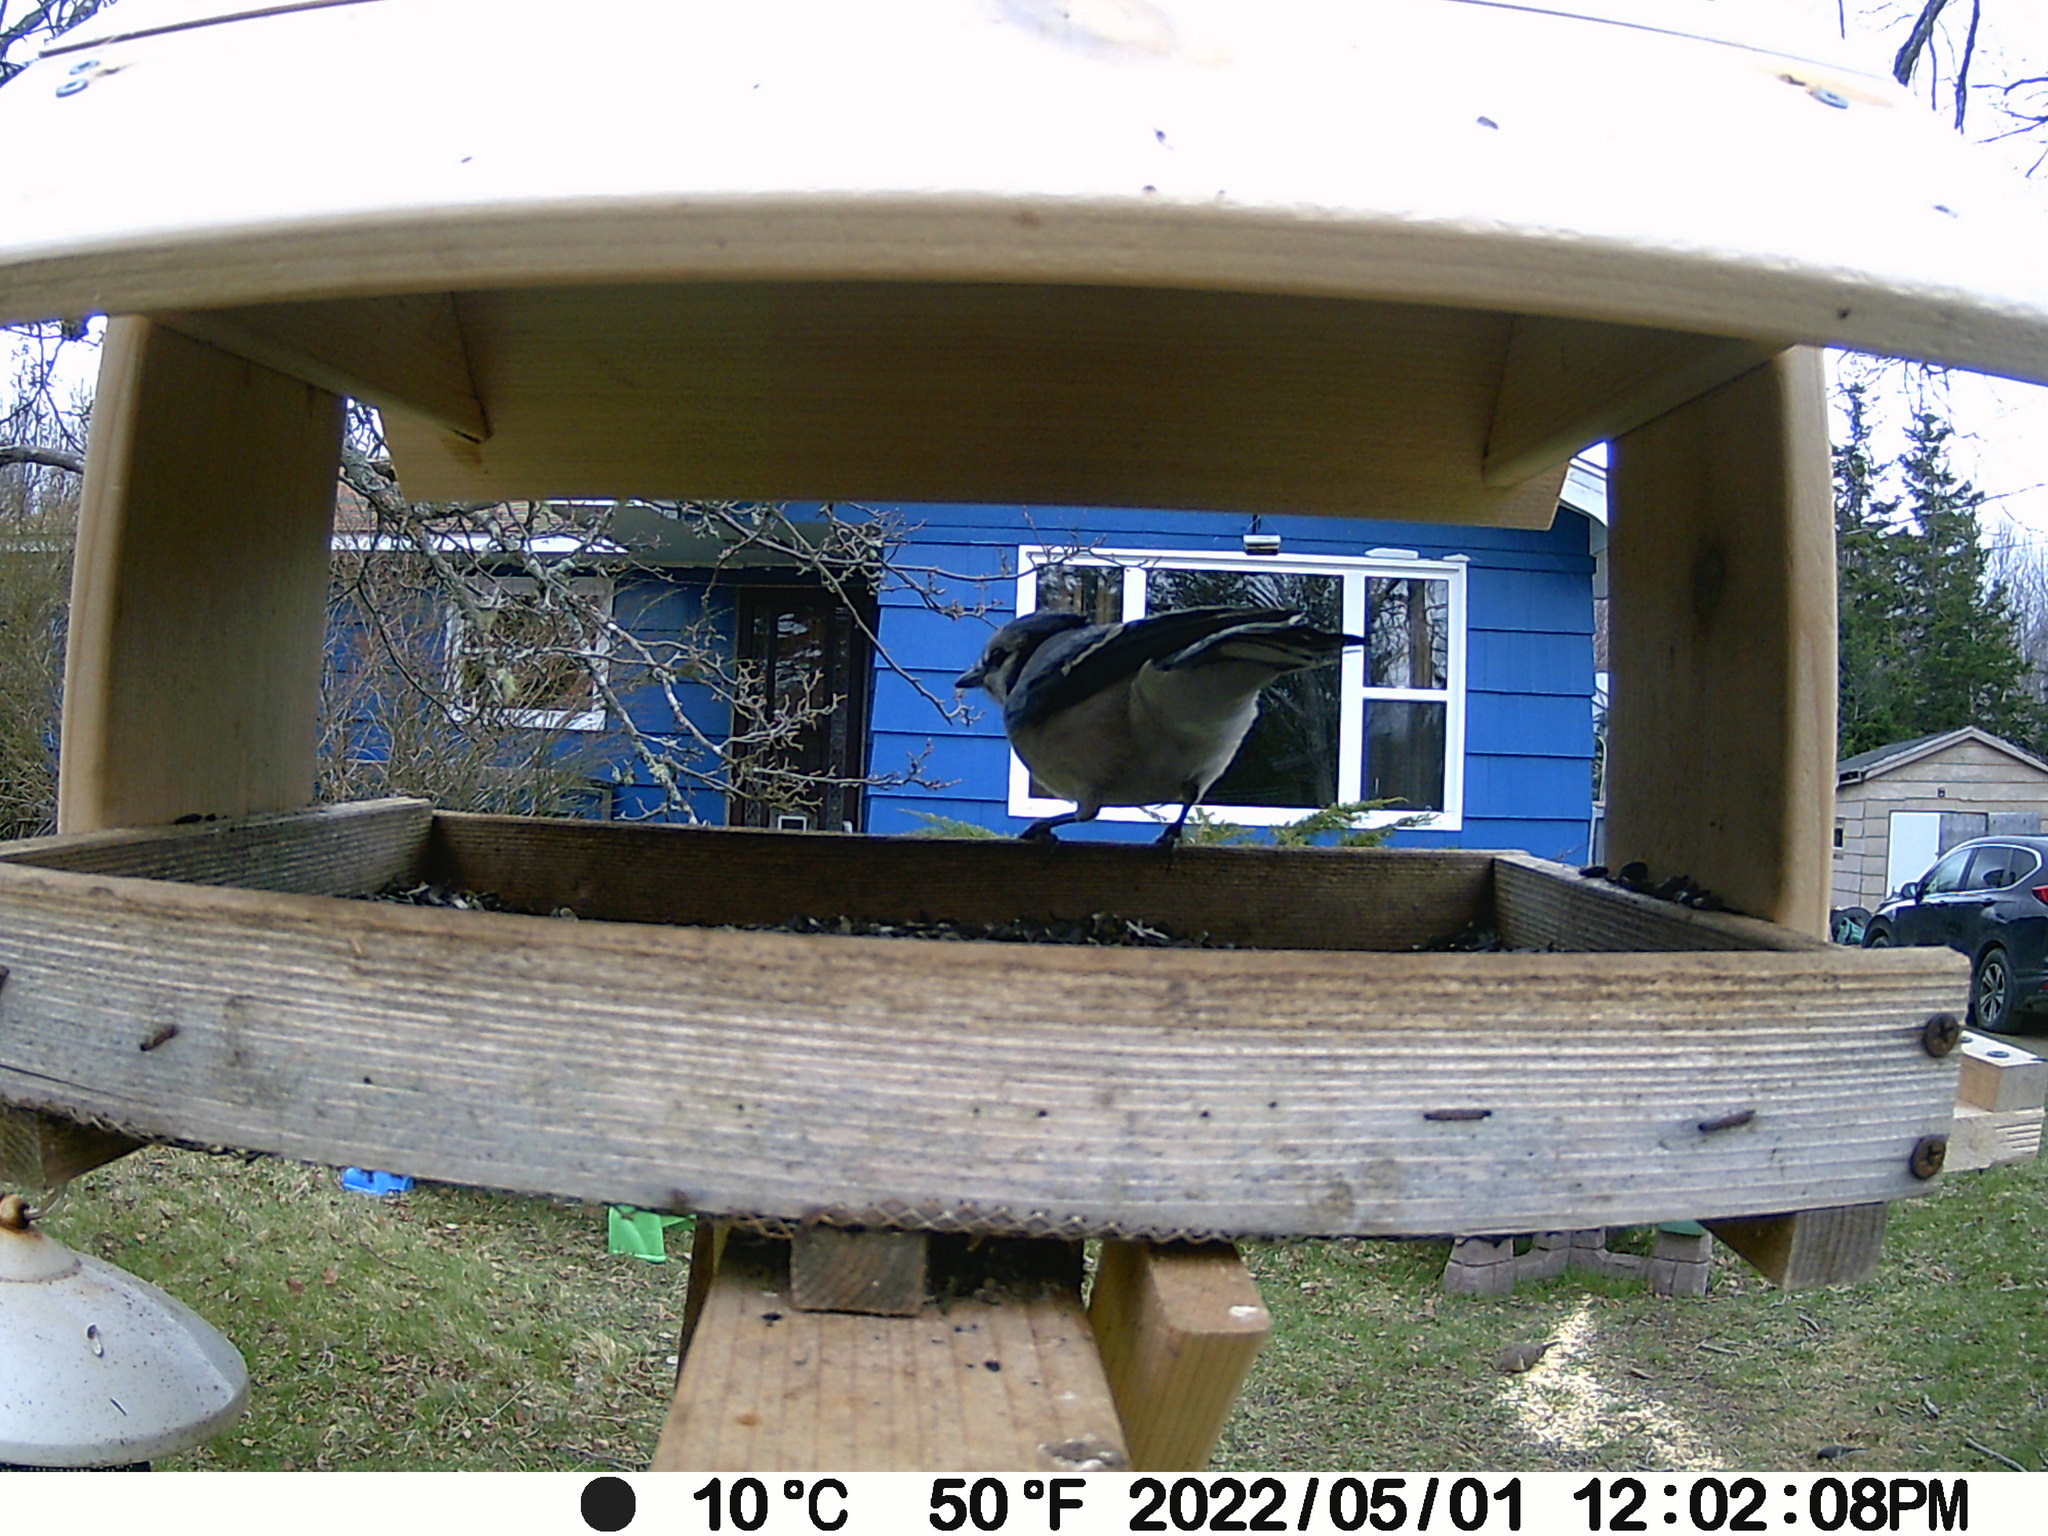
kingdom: Animalia
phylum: Chordata
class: Aves
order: Passeriformes
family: Corvidae
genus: Cyanocitta
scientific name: Cyanocitta cristata
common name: Blue jay
